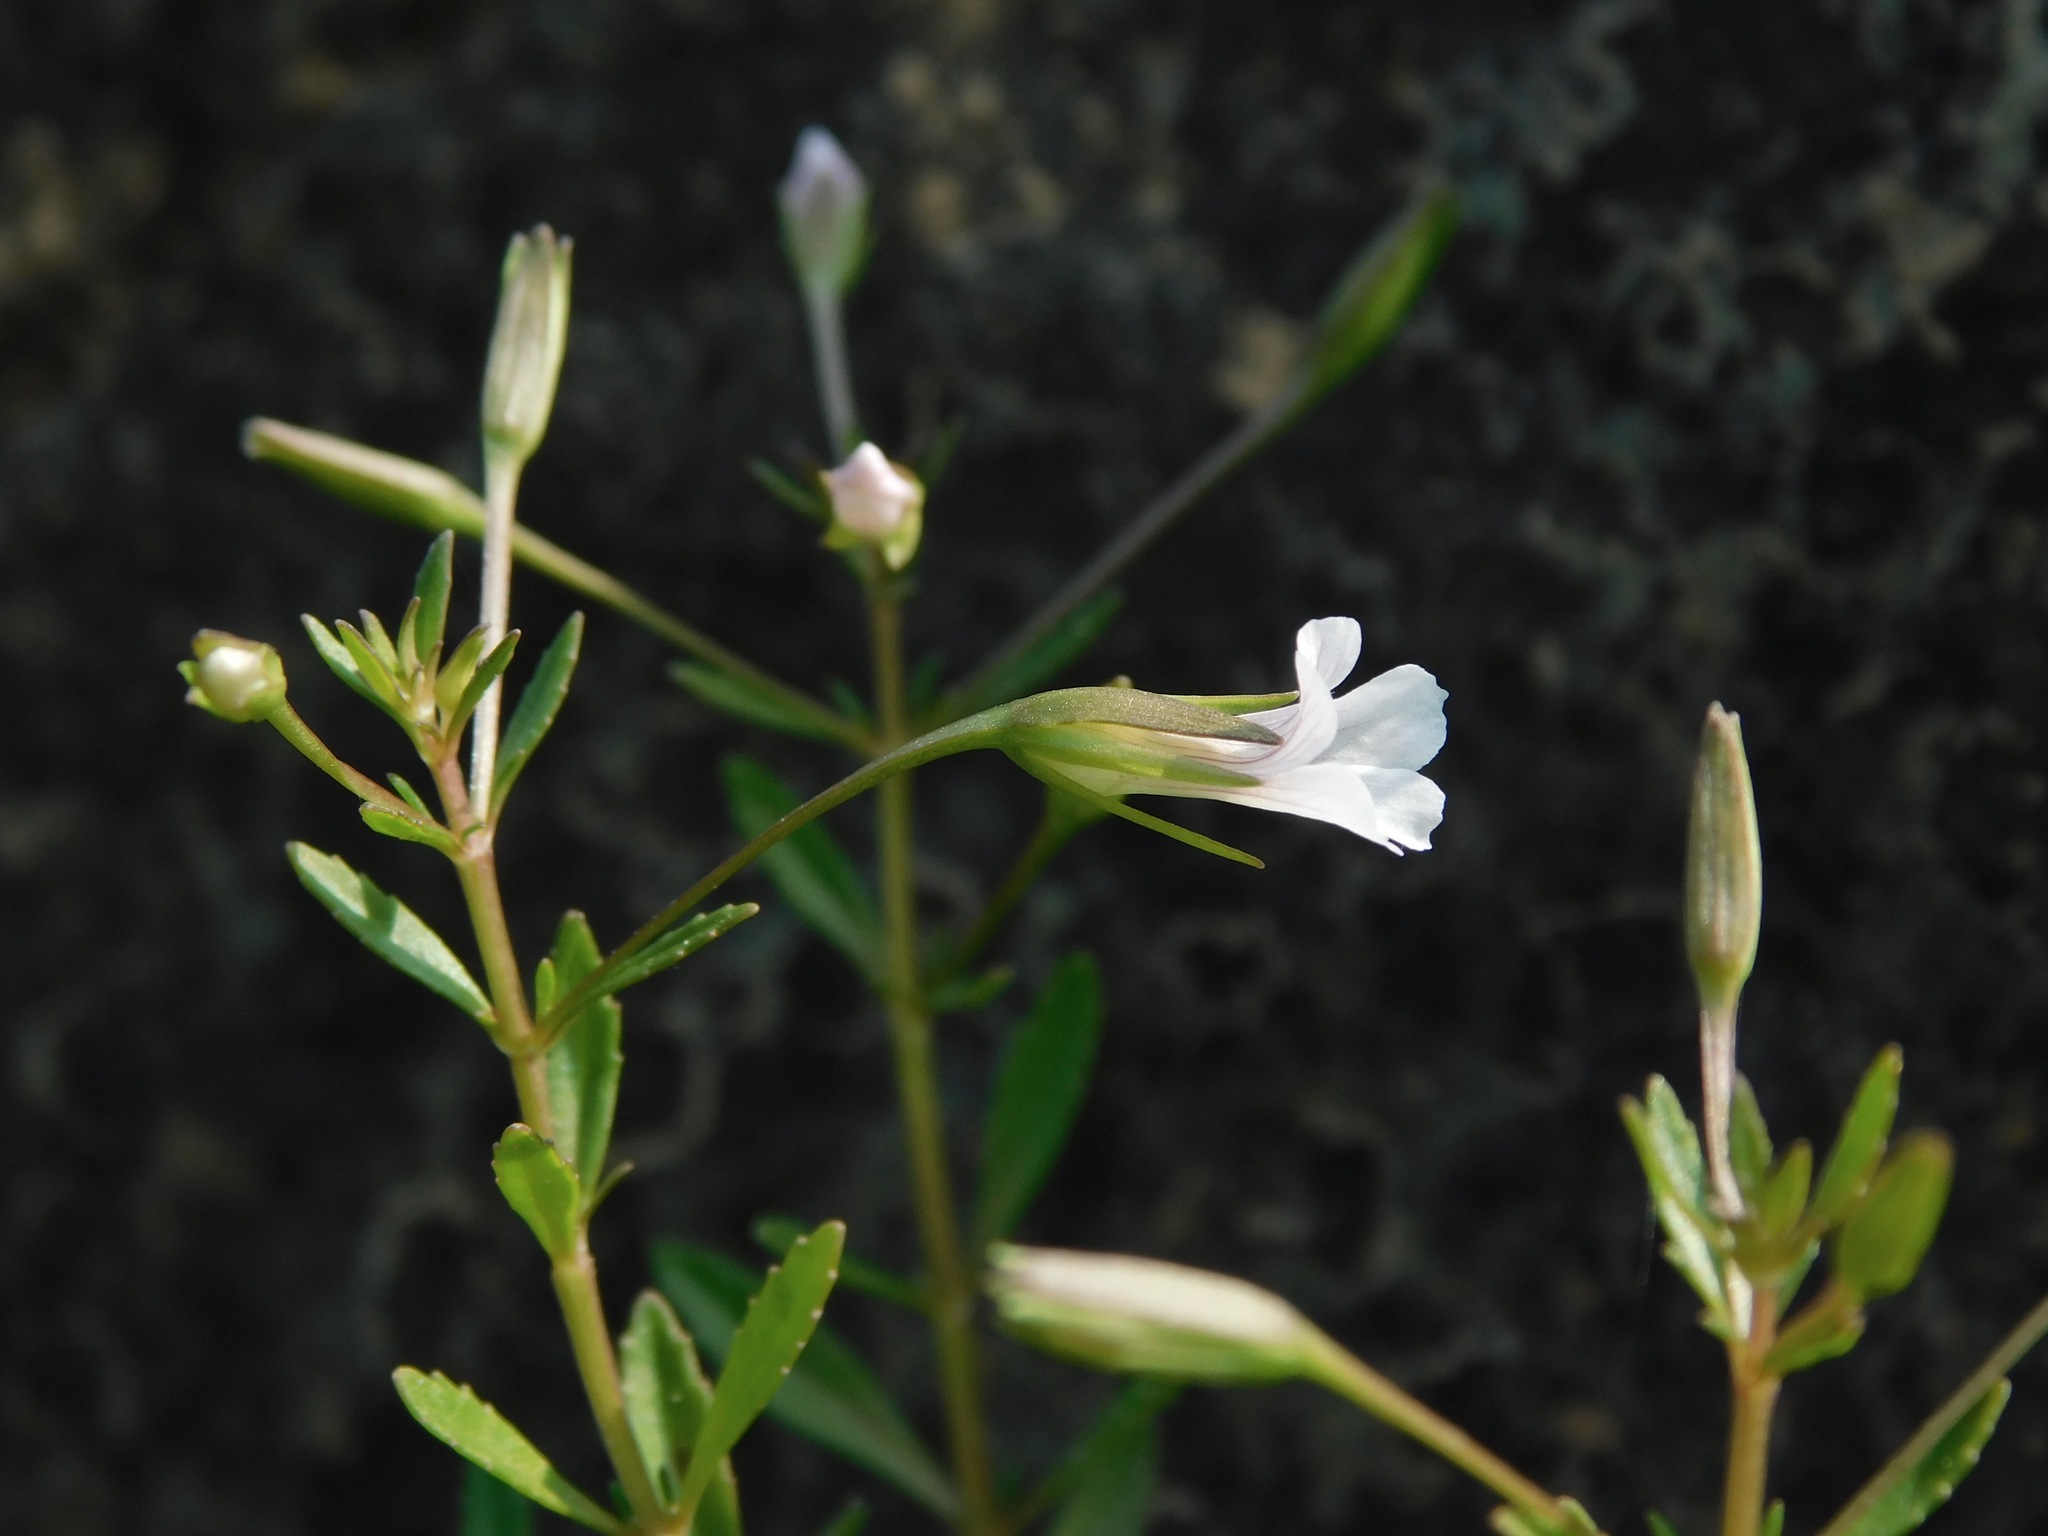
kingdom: Plantae
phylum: Tracheophyta
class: Magnoliopsida
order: Lamiales
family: Plantaginaceae
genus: Mecardonia
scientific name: Mecardonia acuminata
